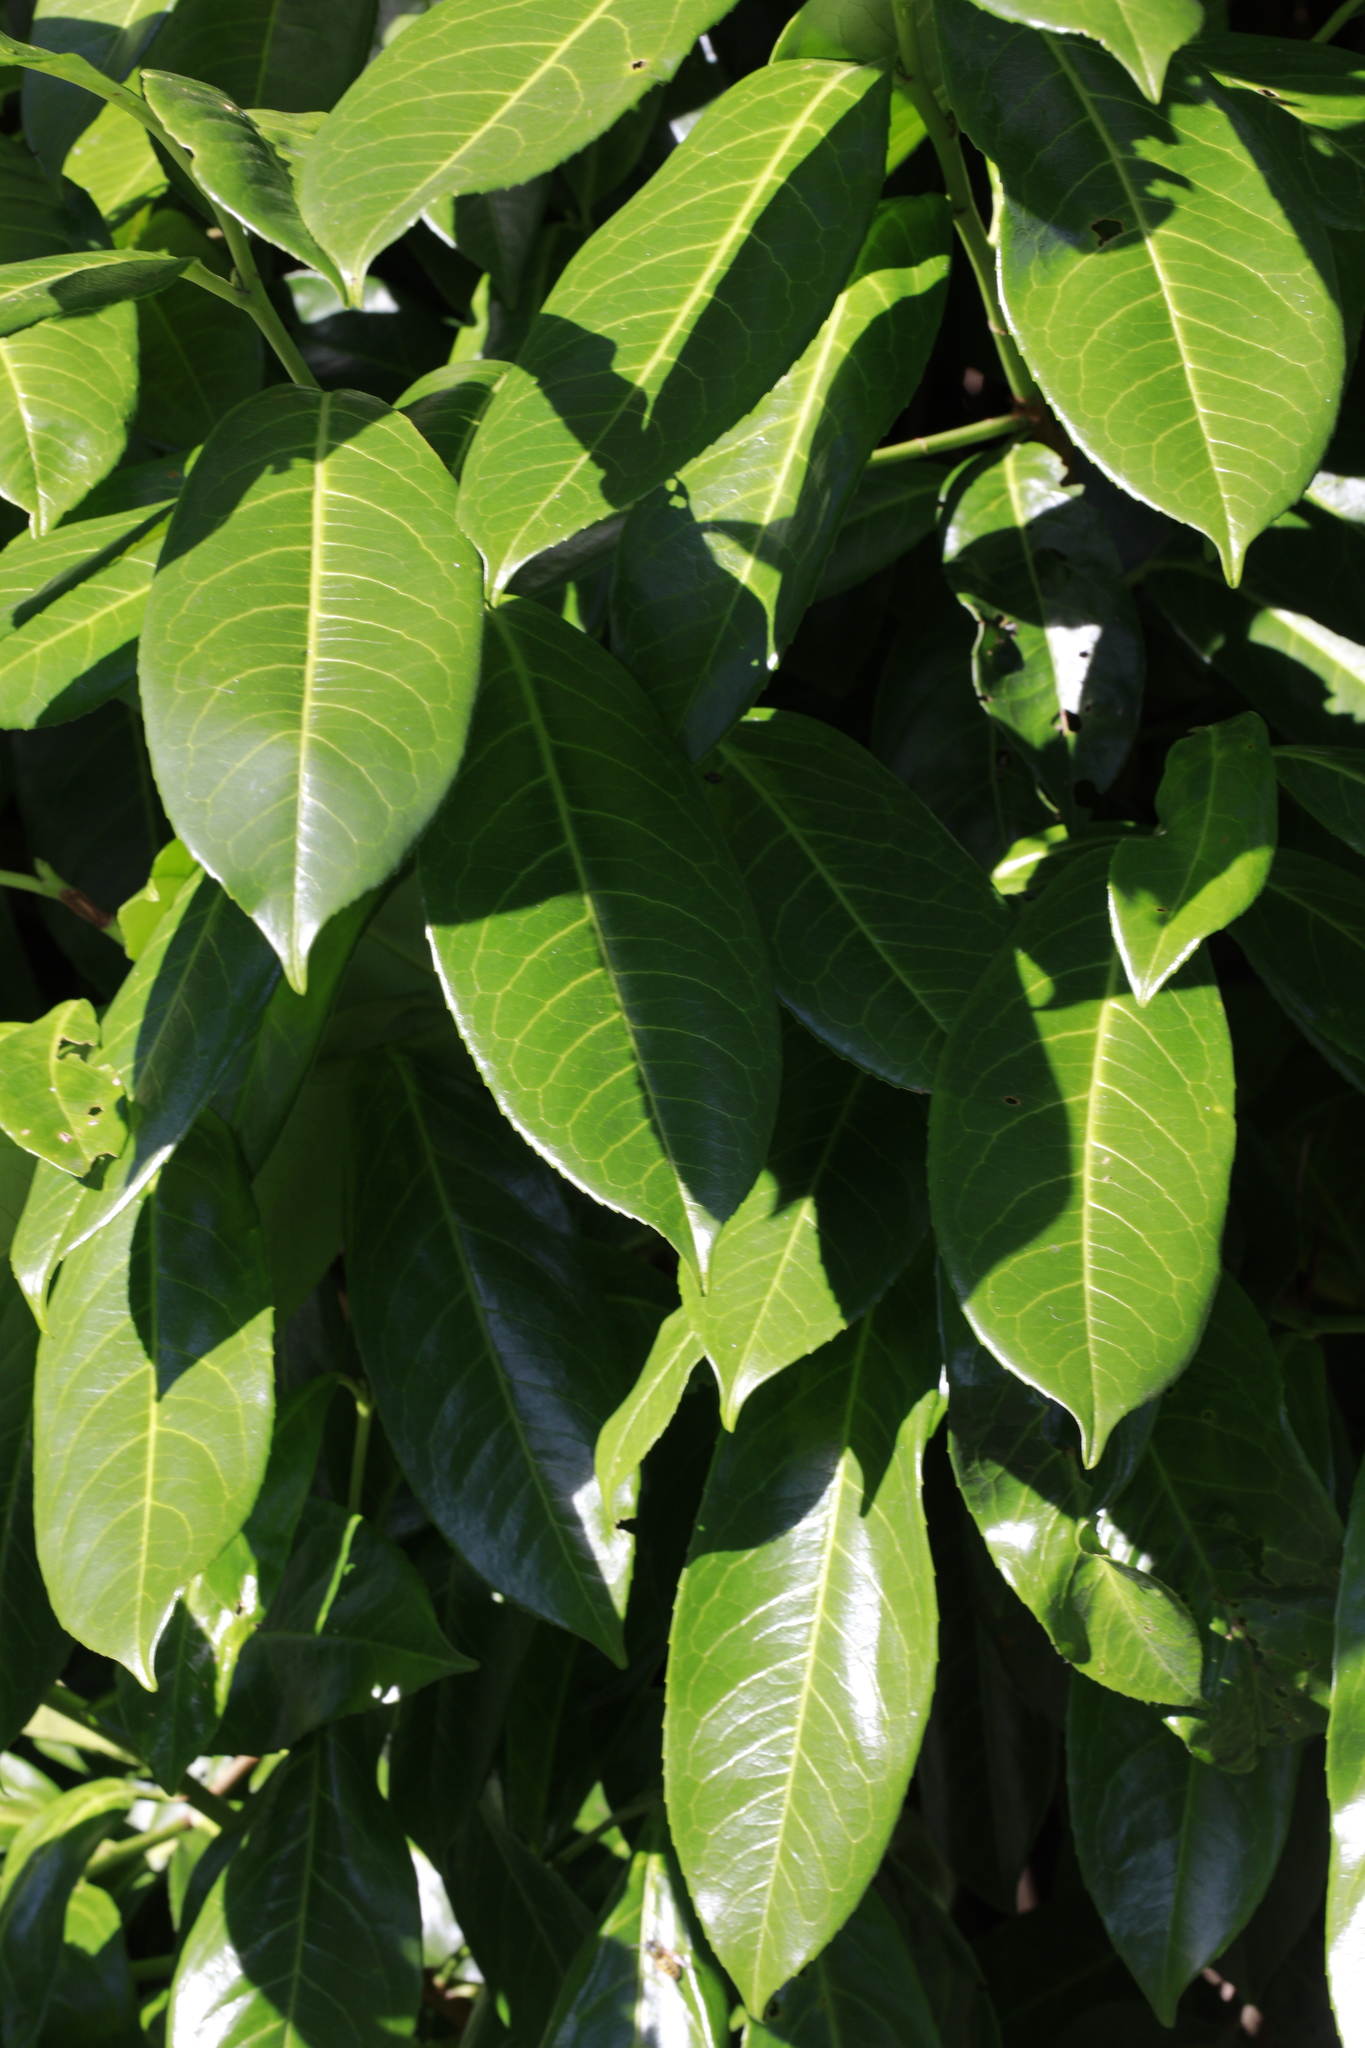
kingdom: Plantae
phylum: Tracheophyta
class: Magnoliopsida
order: Rosales
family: Rosaceae
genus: Prunus
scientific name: Prunus laurocerasus
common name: Cherry laurel
